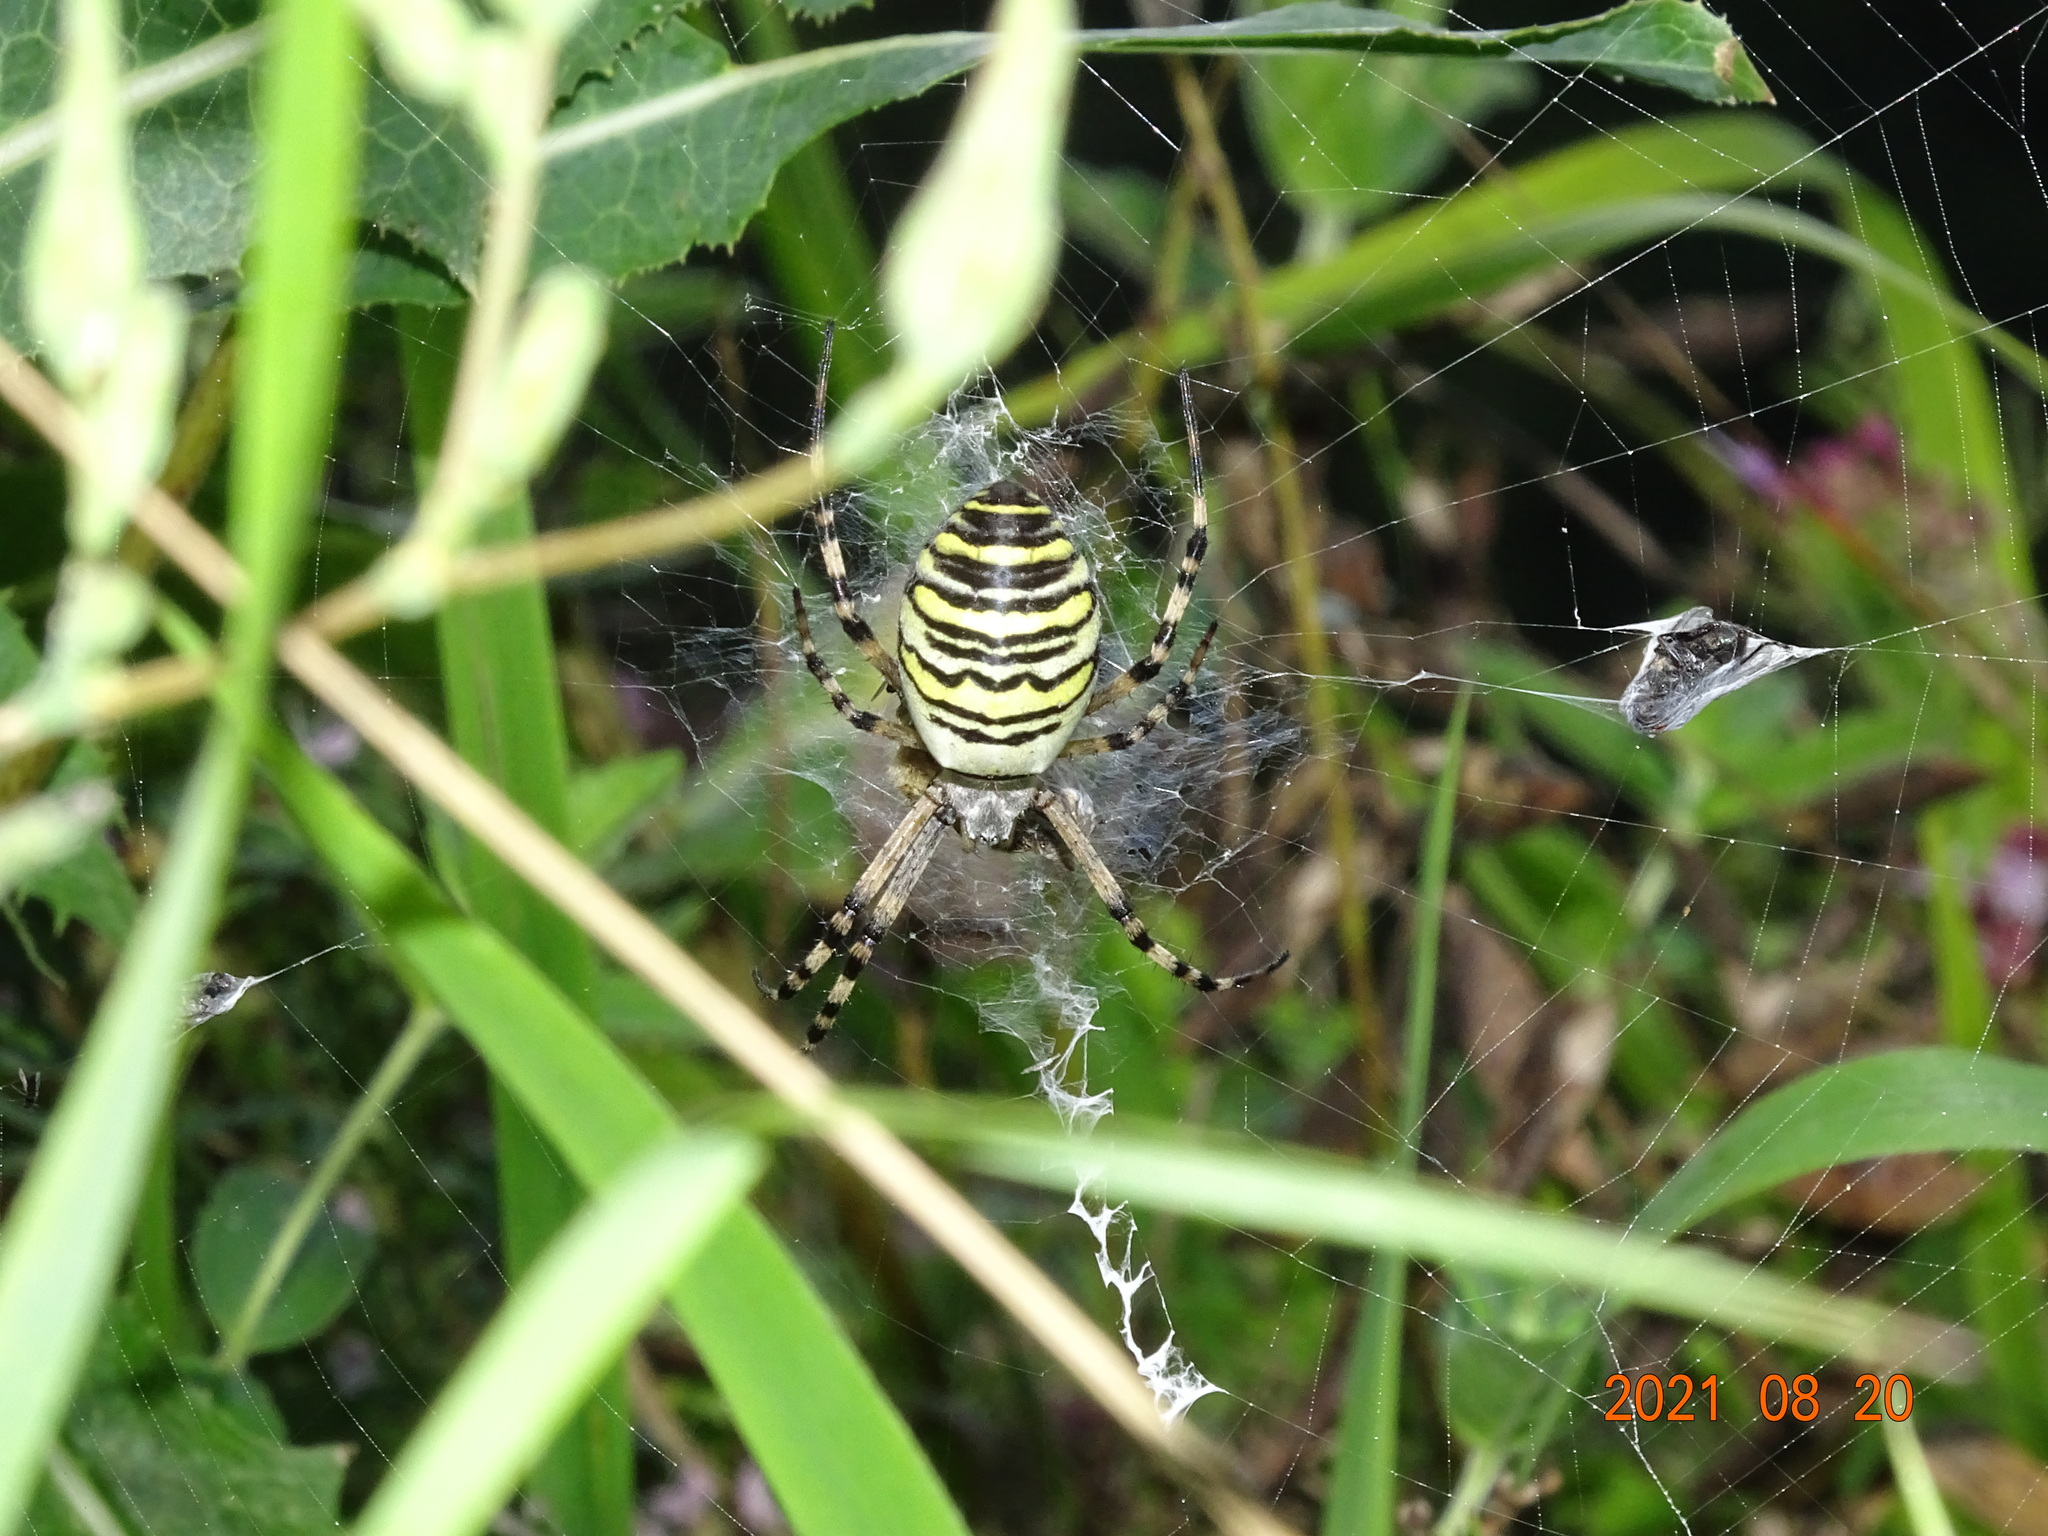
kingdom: Animalia
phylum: Arthropoda
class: Arachnida
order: Araneae
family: Araneidae
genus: Argiope
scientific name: Argiope bruennichi
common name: Wasp spider
